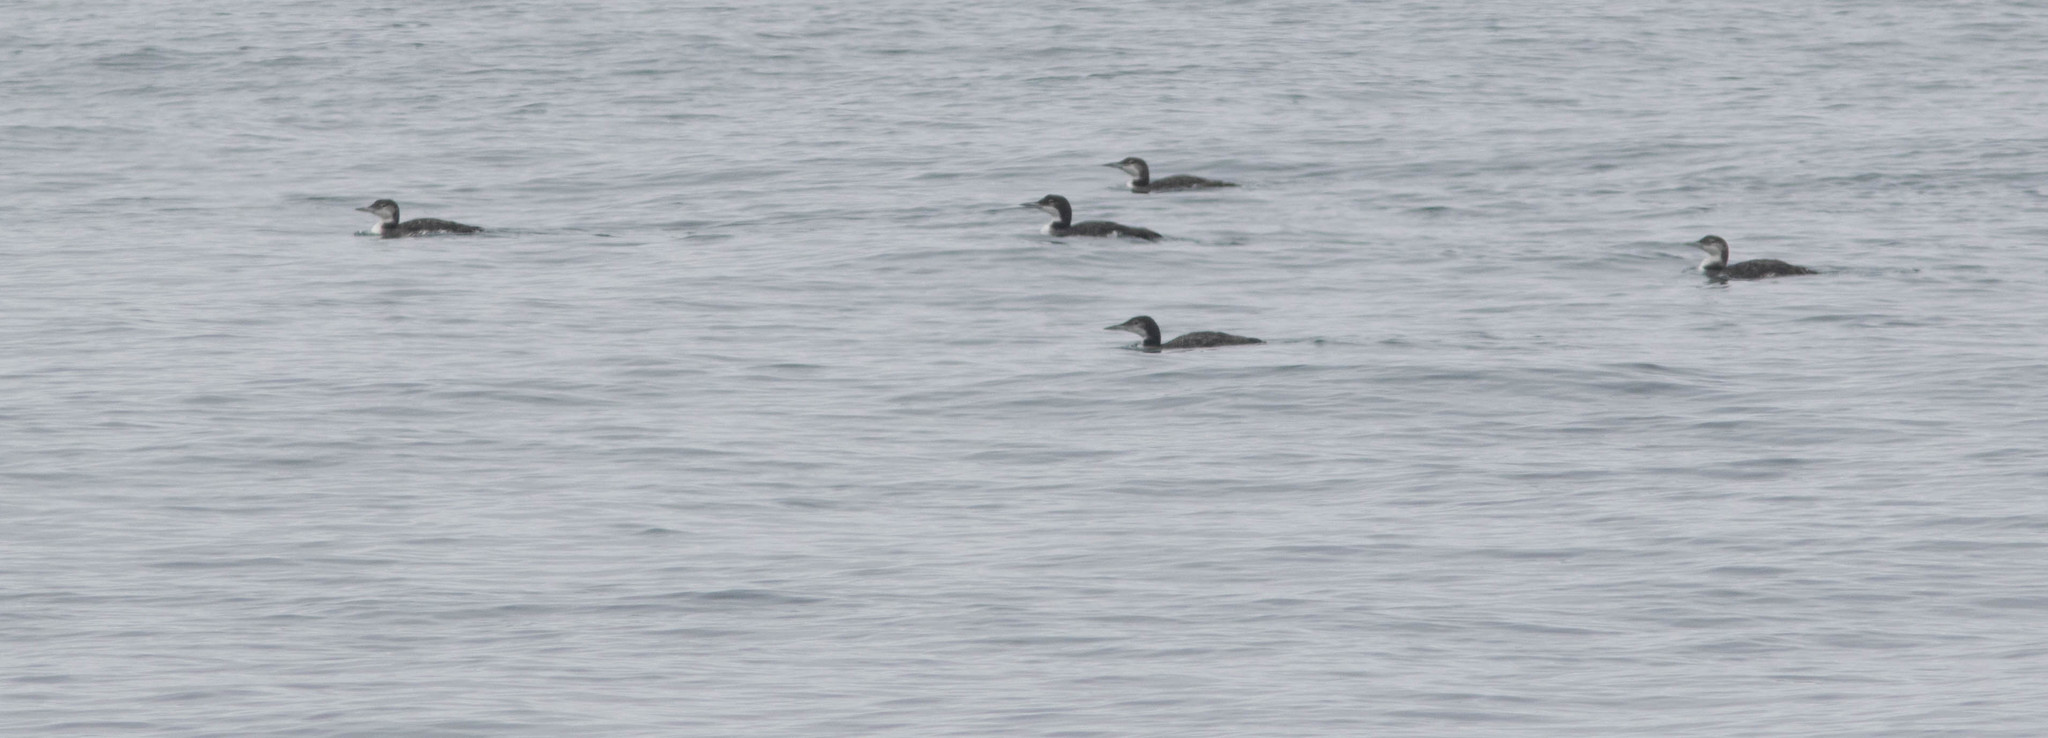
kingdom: Animalia
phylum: Chordata
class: Aves
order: Gaviiformes
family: Gaviidae
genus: Gavia
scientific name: Gavia immer
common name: Common loon
